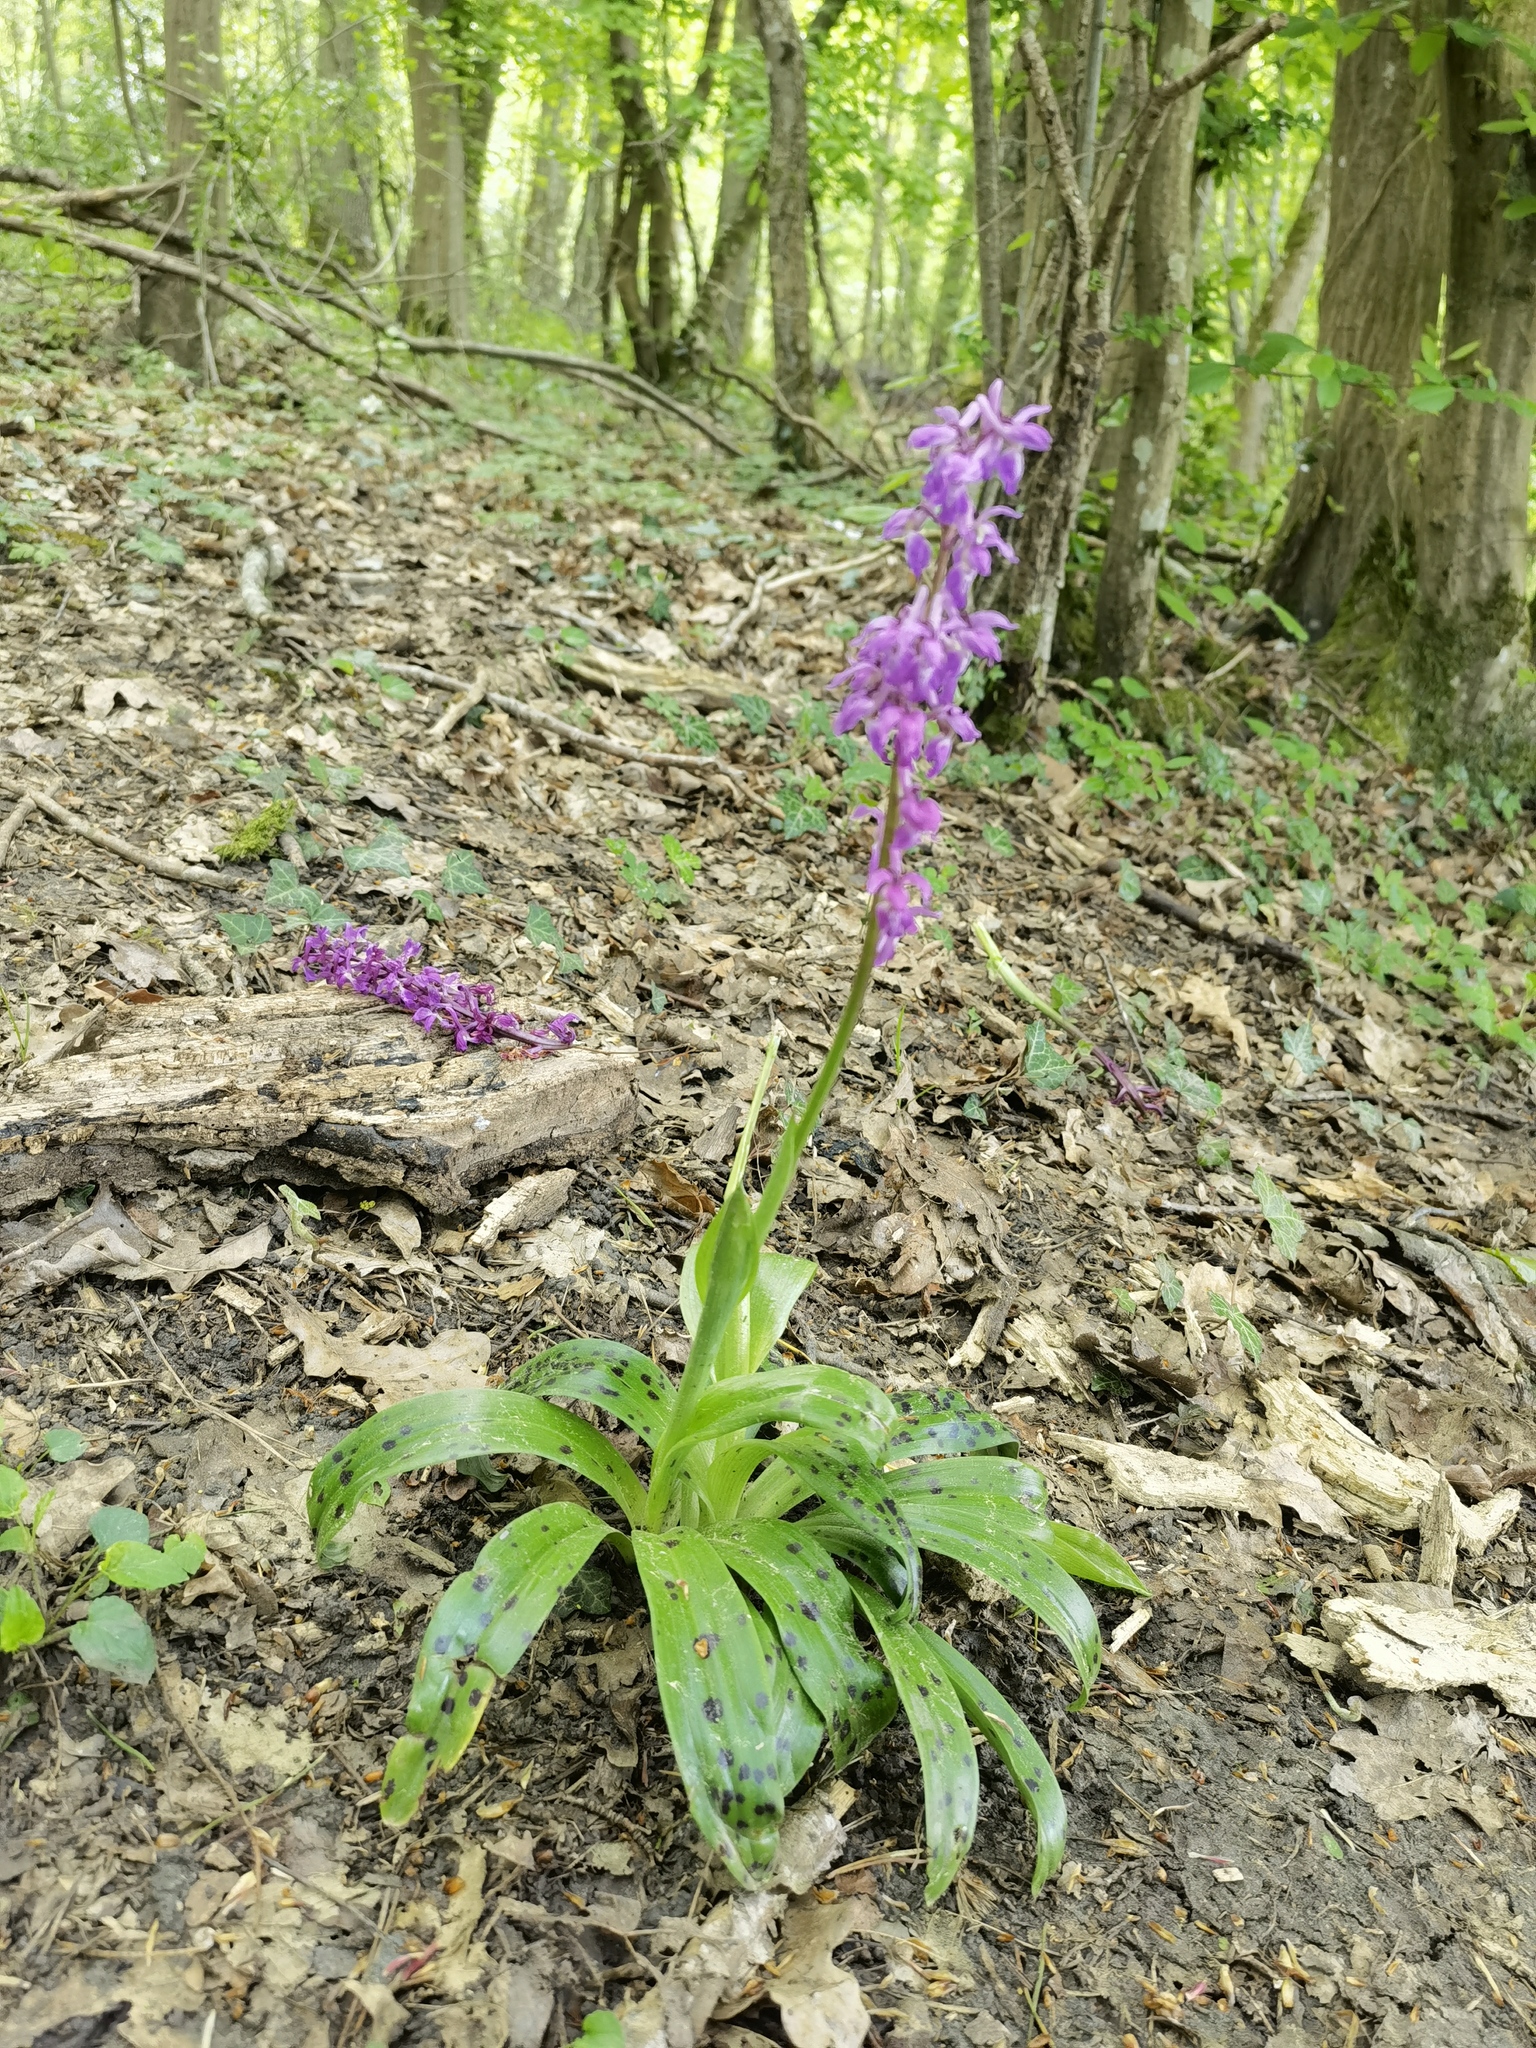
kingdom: Plantae
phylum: Tracheophyta
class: Liliopsida
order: Asparagales
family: Orchidaceae
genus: Orchis
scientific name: Orchis mascula
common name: Early-purple orchid
